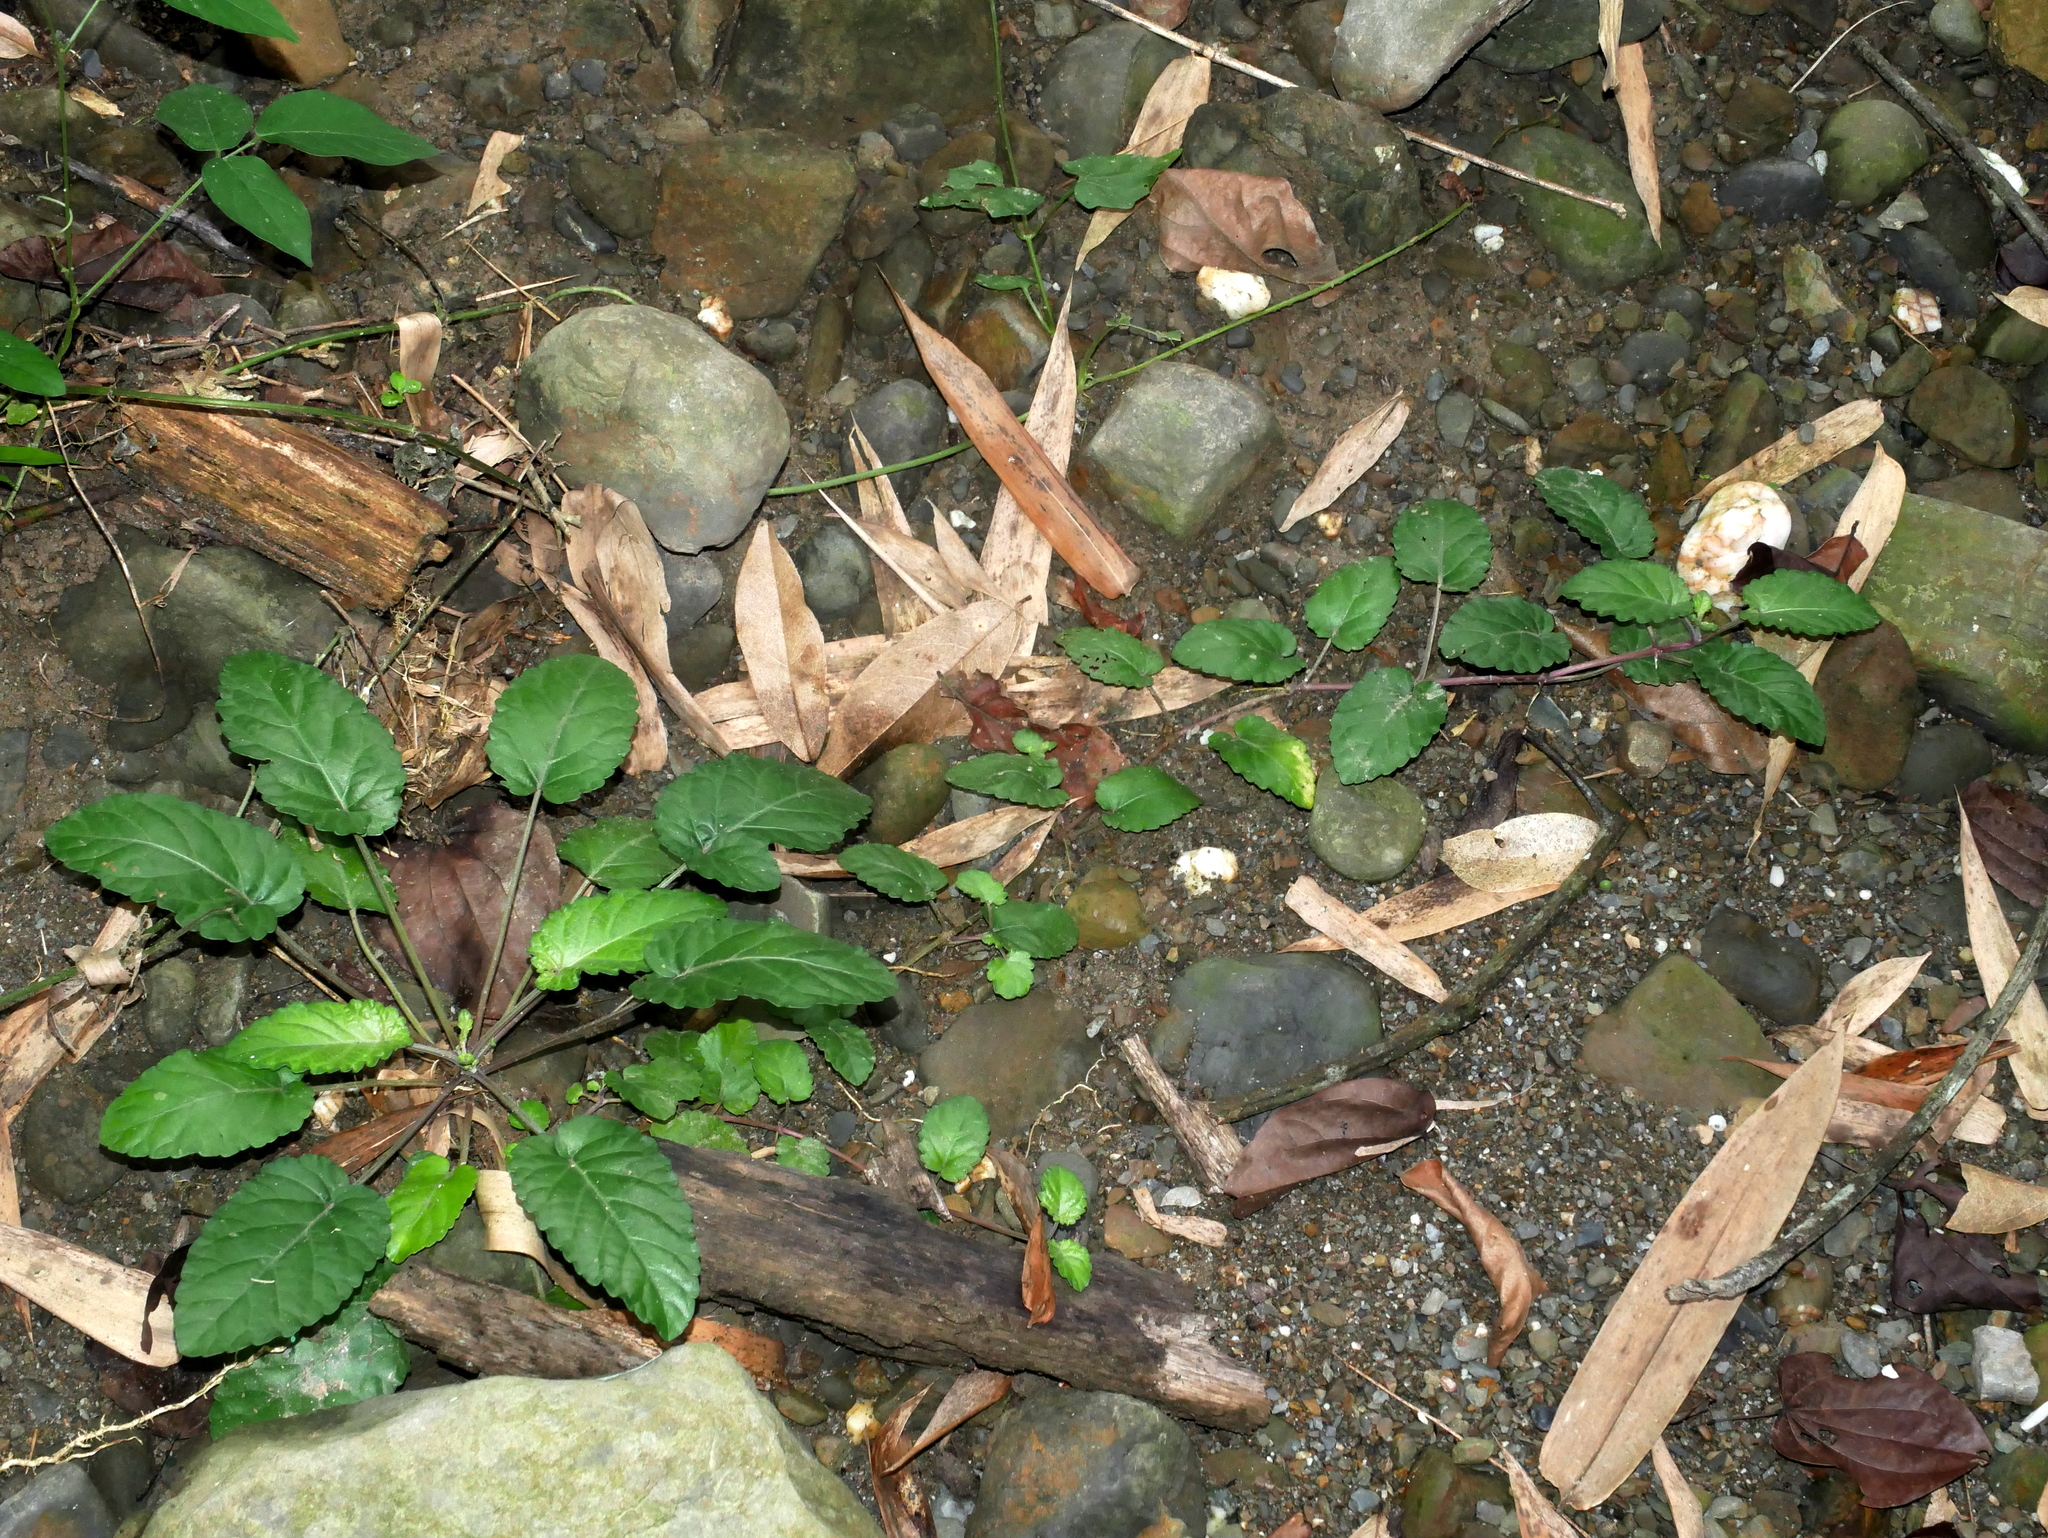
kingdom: Plantae
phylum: Tracheophyta
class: Magnoliopsida
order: Lamiales
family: Lamiaceae
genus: Salvia
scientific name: Salvia chinensis
